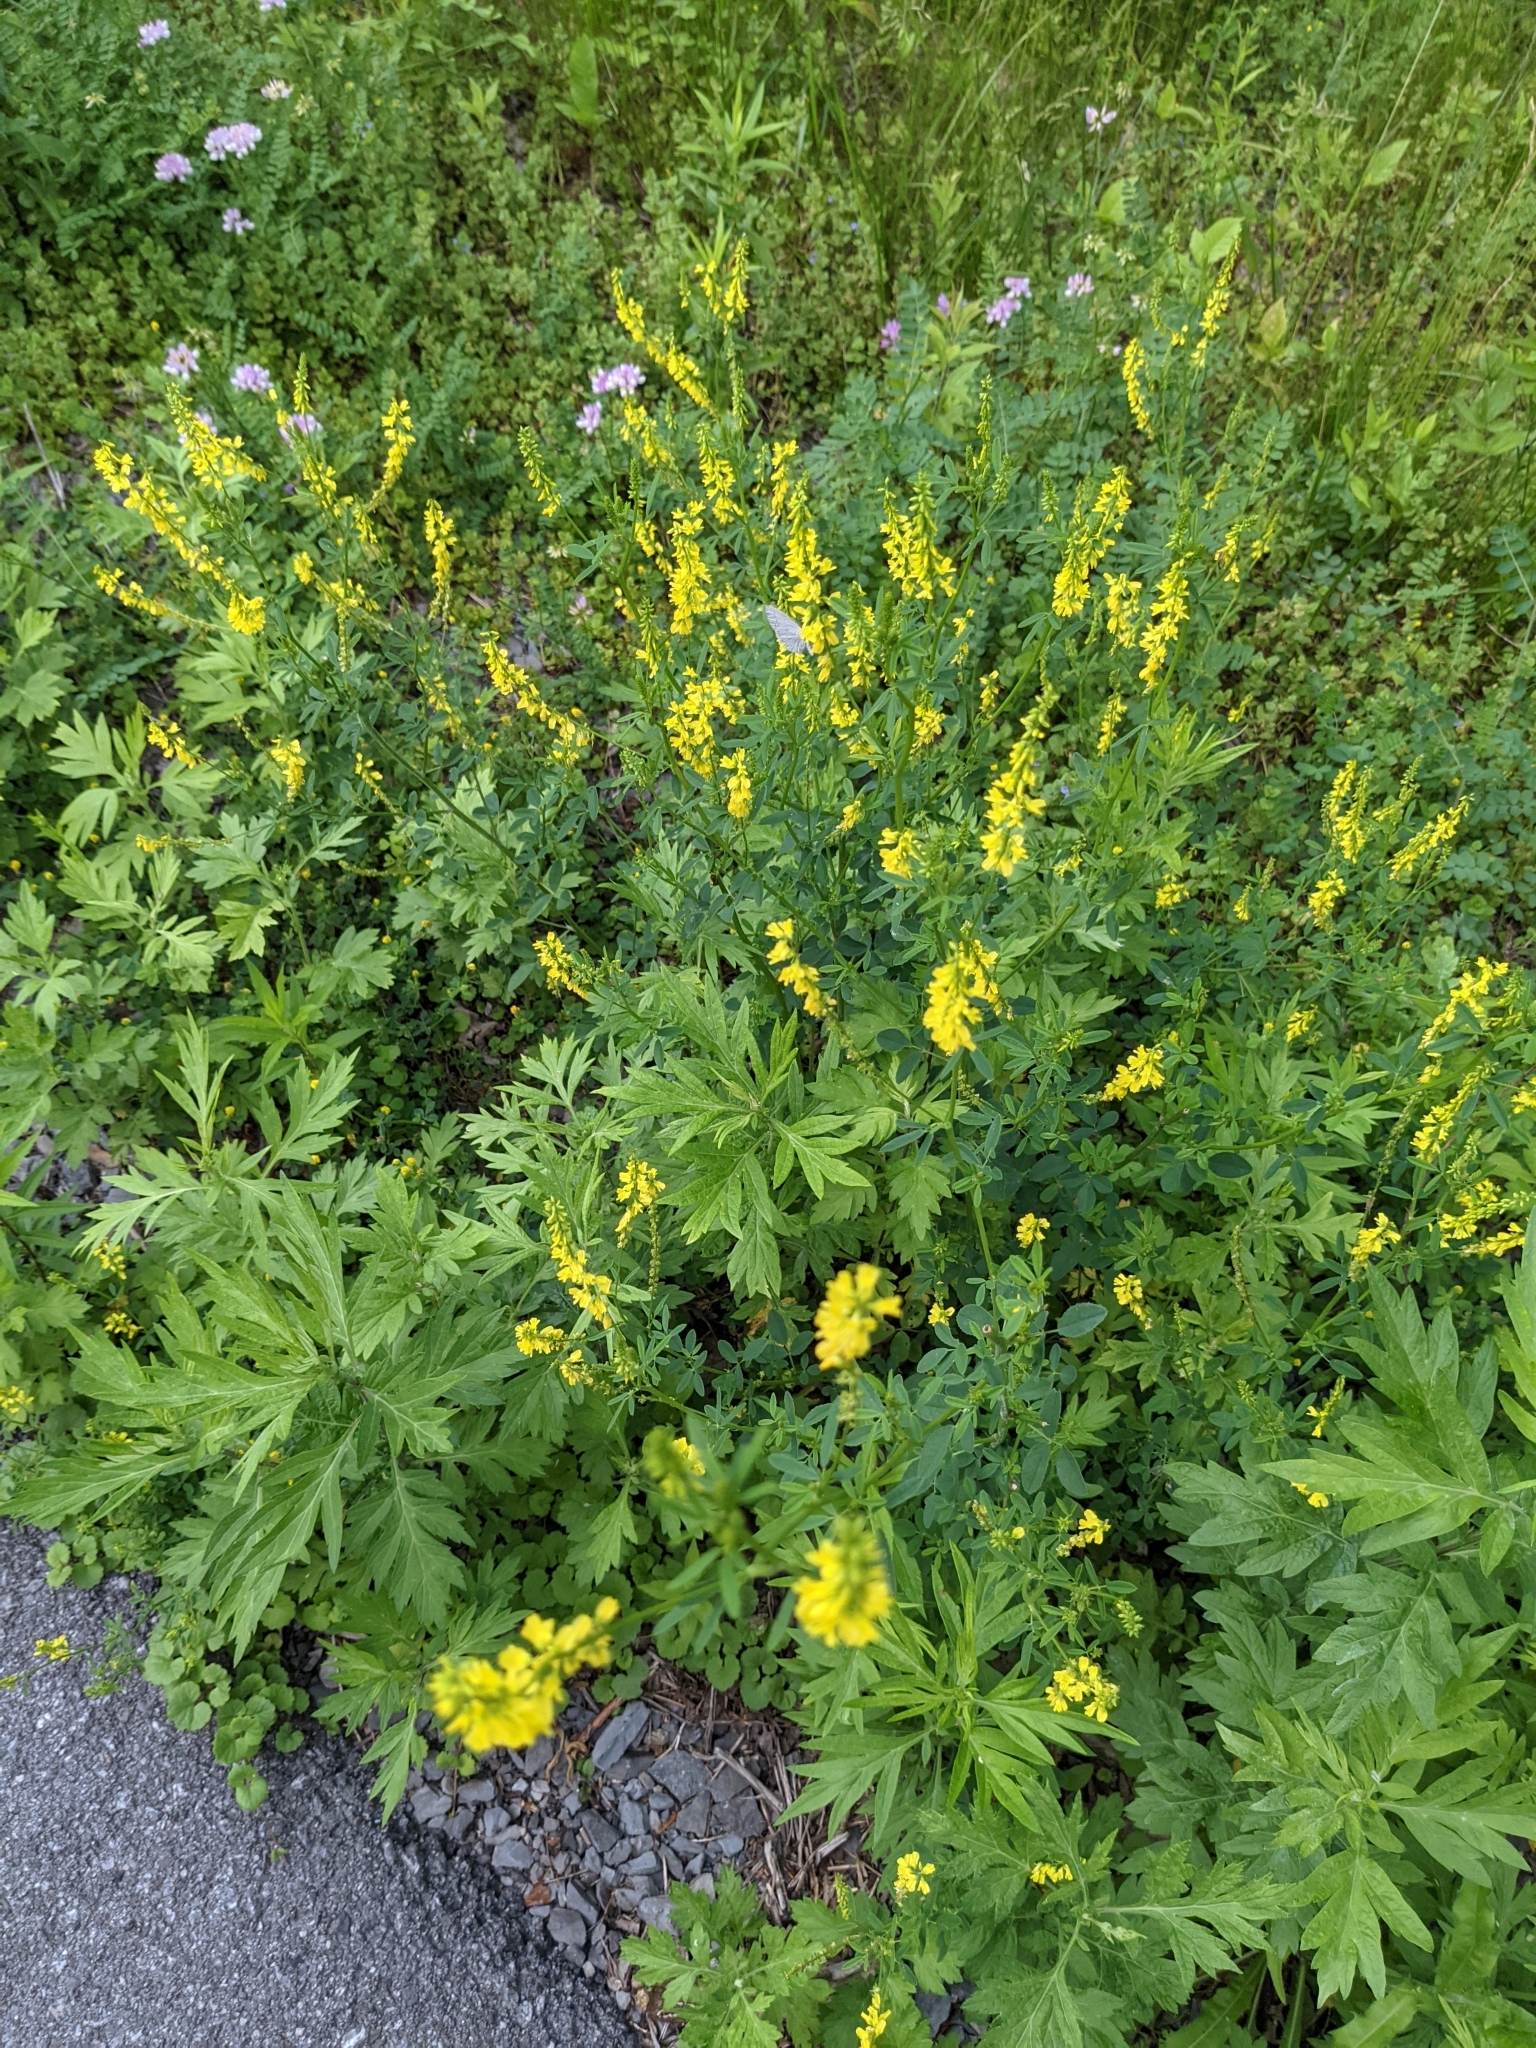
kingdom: Animalia
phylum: Arthropoda
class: Insecta
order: Lepidoptera
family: Lycaenidae
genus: Cyaniris
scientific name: Cyaniris neglecta
